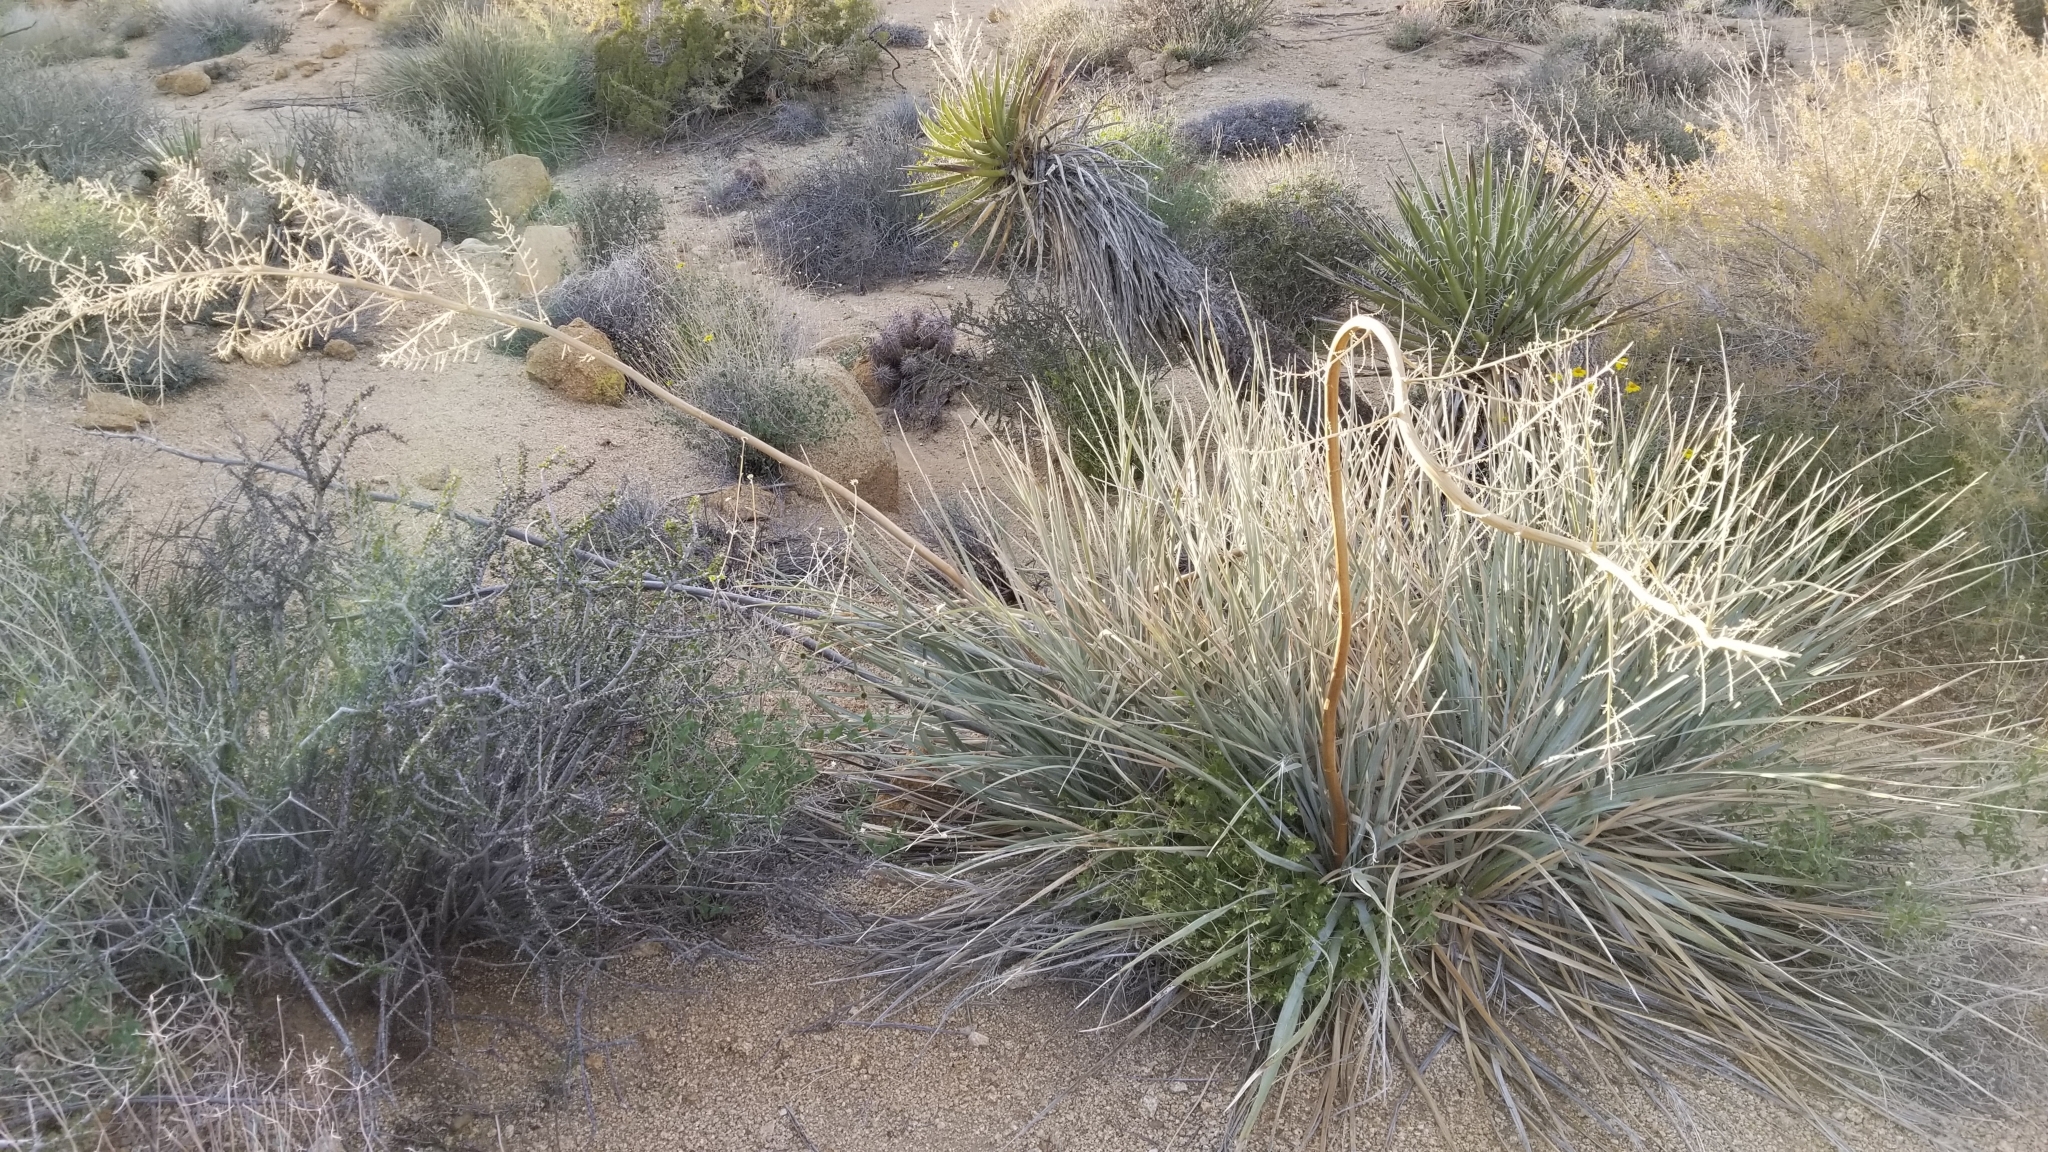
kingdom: Plantae
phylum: Tracheophyta
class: Liliopsida
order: Asparagales
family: Asparagaceae
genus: Nolina
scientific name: Nolina bigelovii
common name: Bigelow bear-grass
